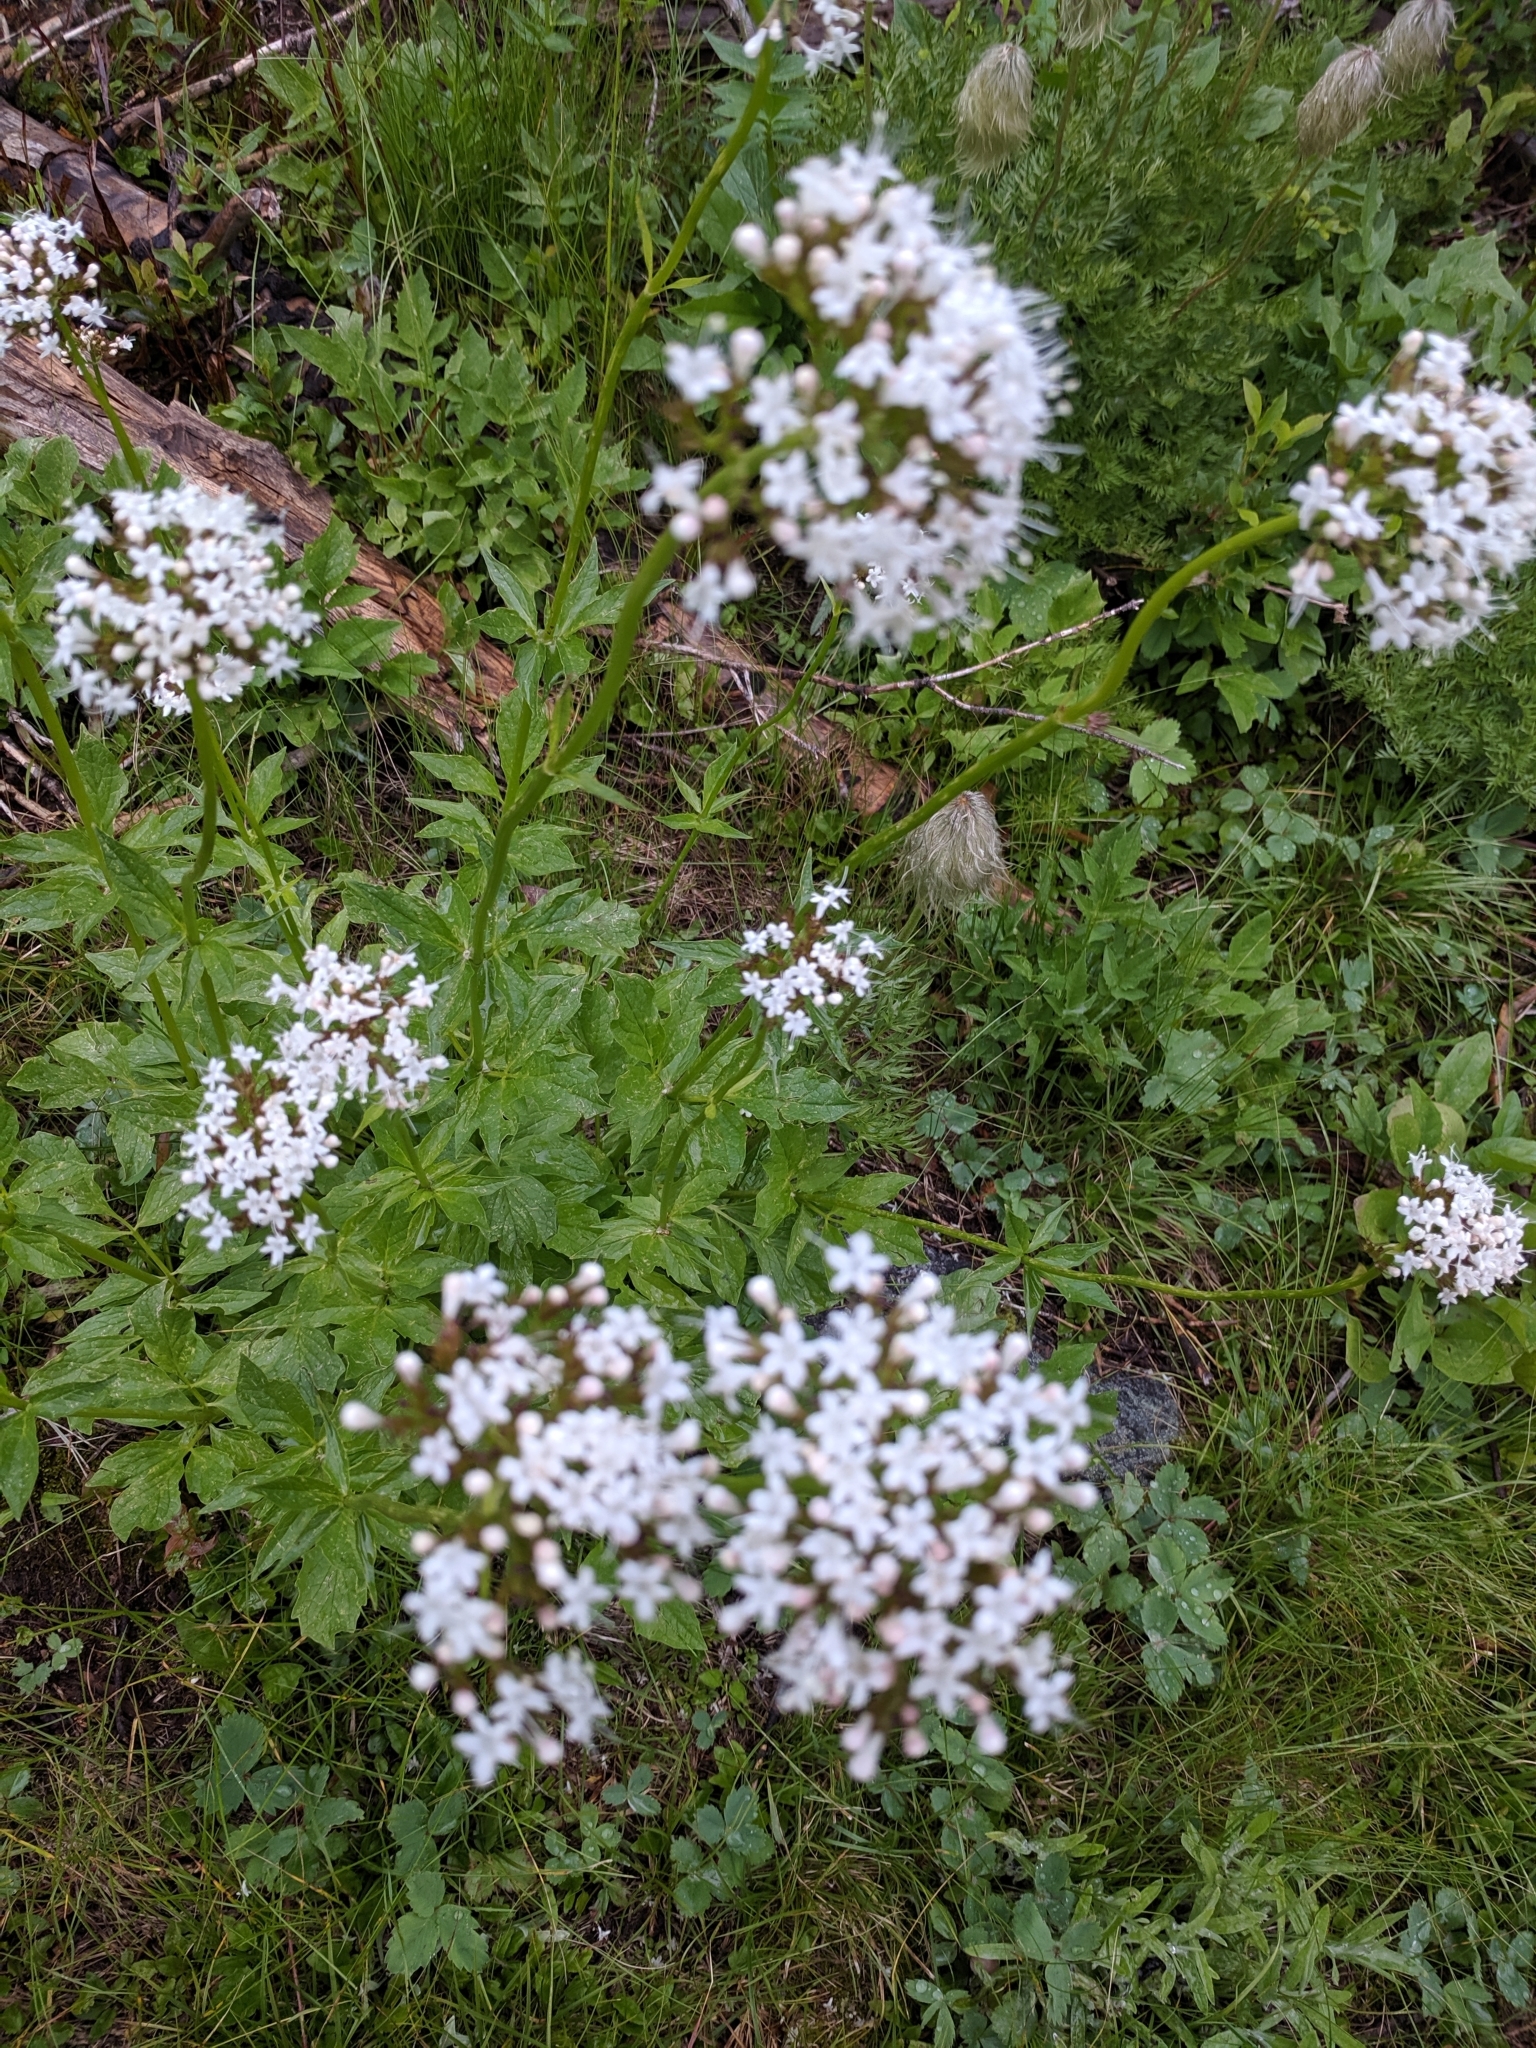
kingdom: Plantae
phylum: Tracheophyta
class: Magnoliopsida
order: Dipsacales
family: Caprifoliaceae
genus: Valeriana
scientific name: Valeriana sitchensis
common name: Pacific valerian
